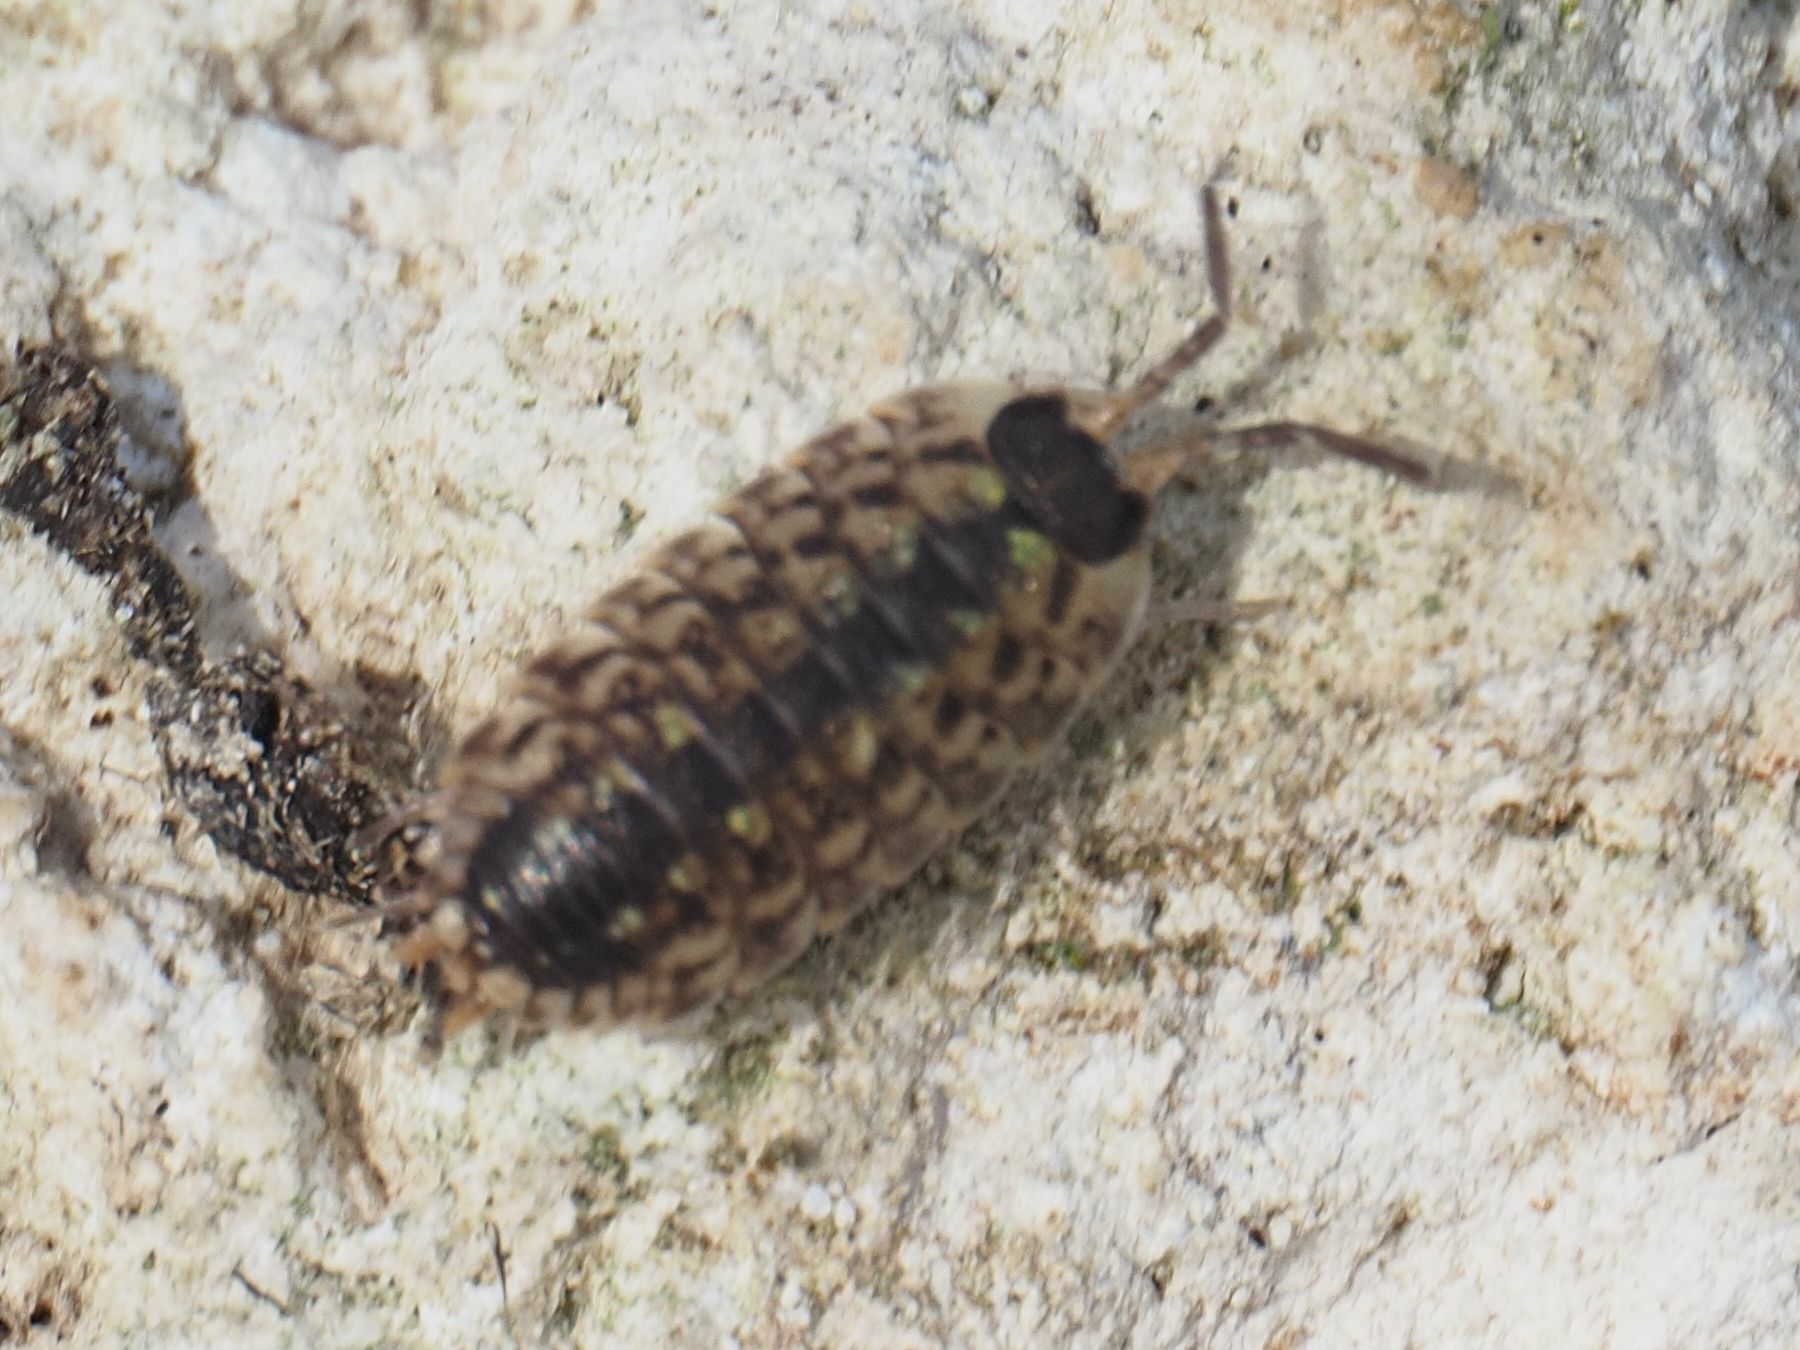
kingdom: Animalia
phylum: Arthropoda
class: Malacostraca
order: Isopoda
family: Porcellionidae
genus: Porcellio
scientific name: Porcellio spinicornis
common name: Painted woodlouse
